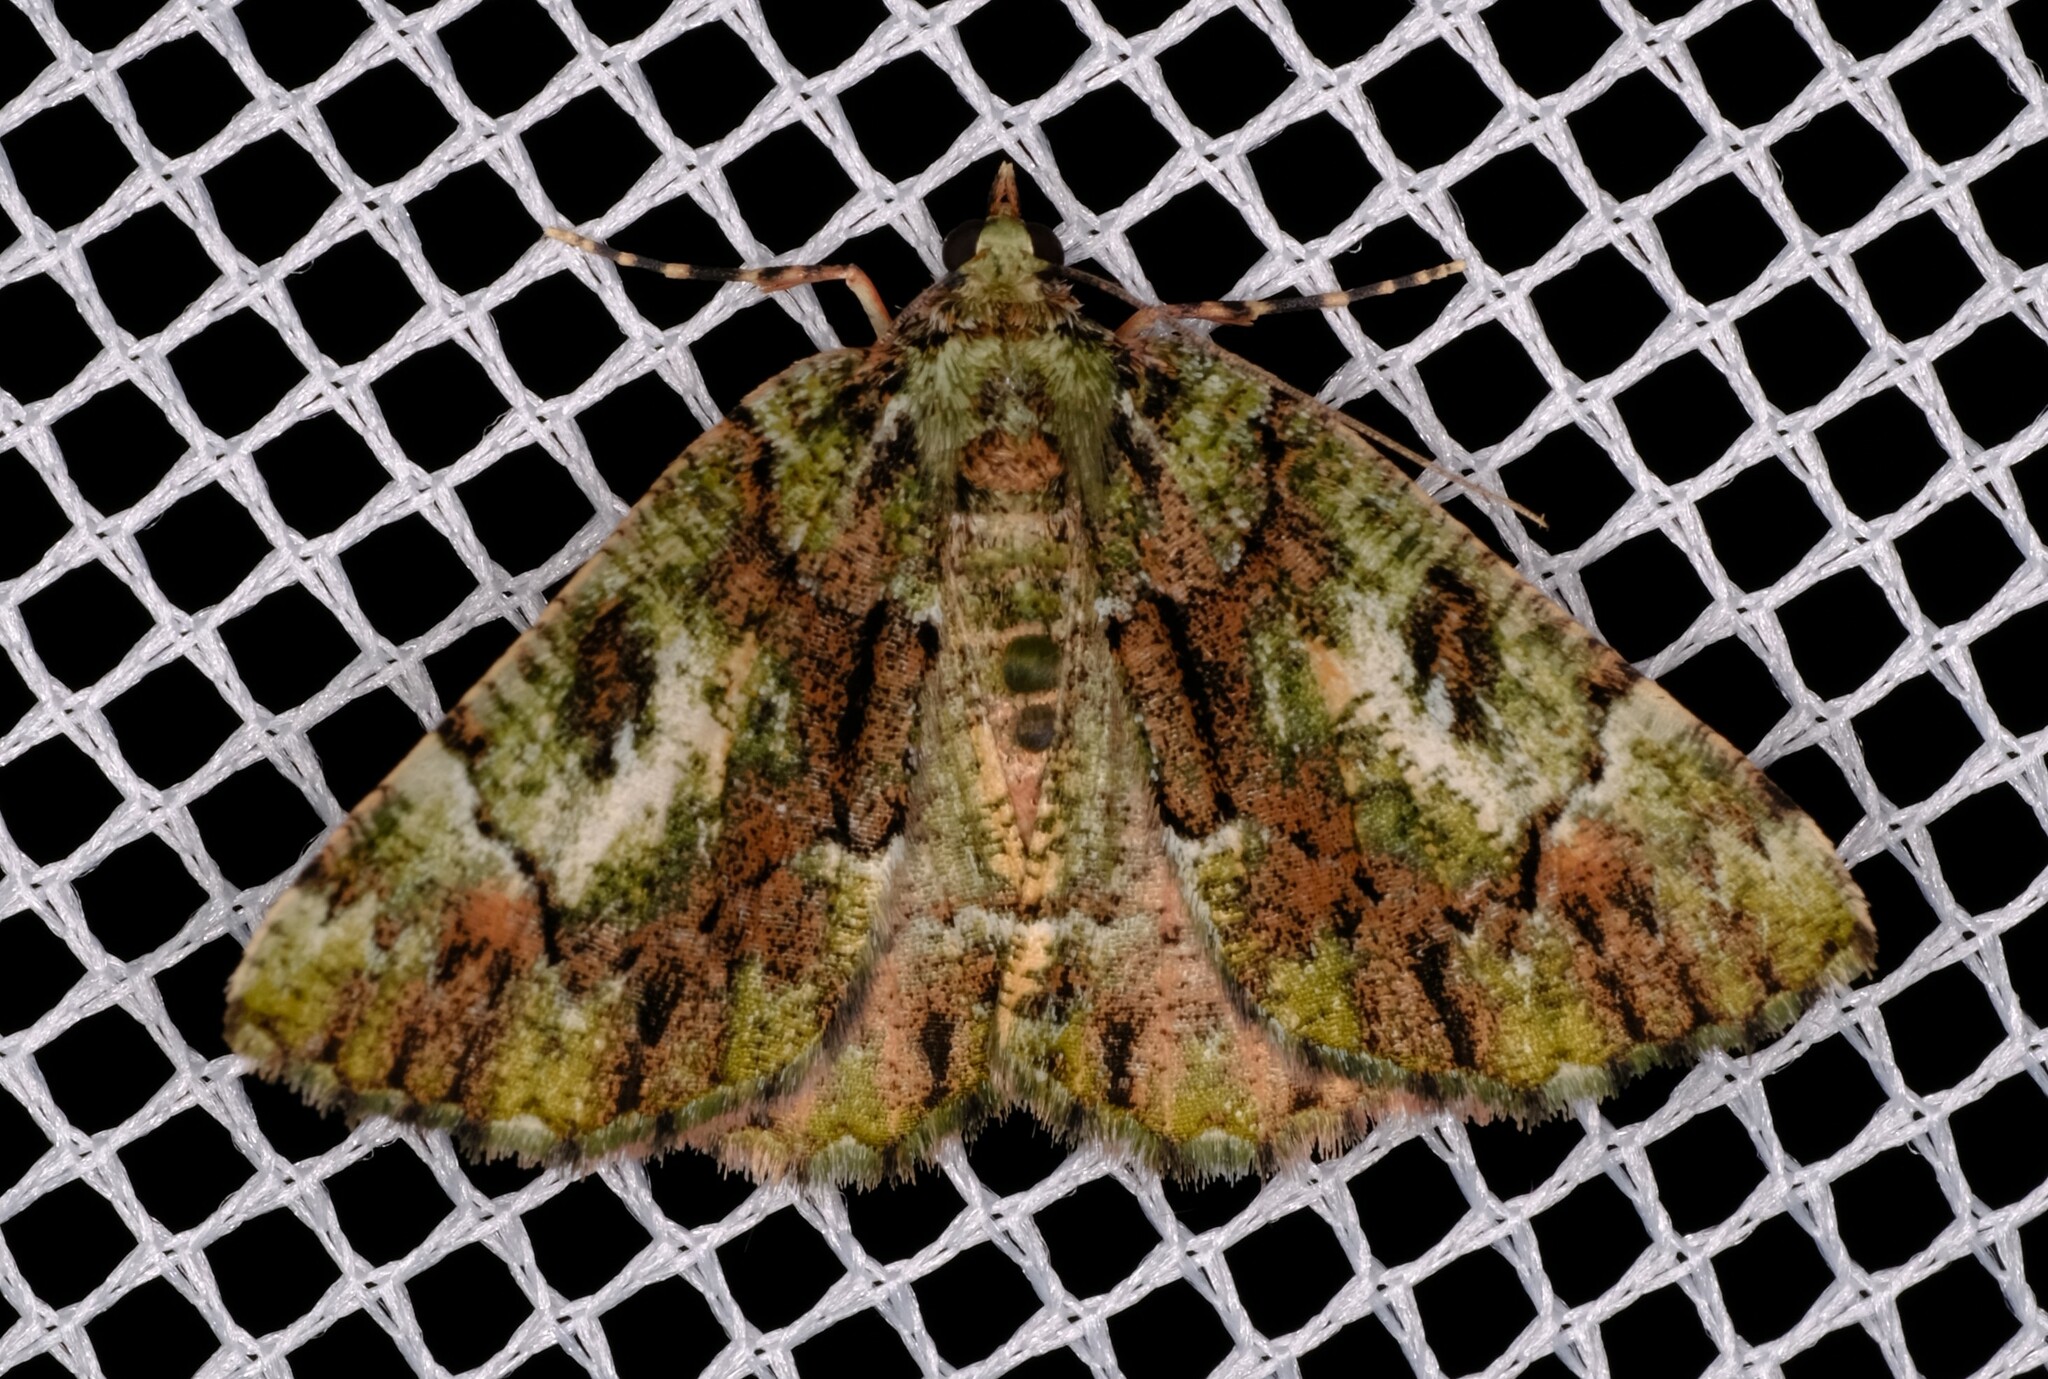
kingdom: Animalia
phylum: Arthropoda
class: Insecta
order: Lepidoptera
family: Geometridae
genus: Aeolochroma
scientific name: Aeolochroma metarhodata
